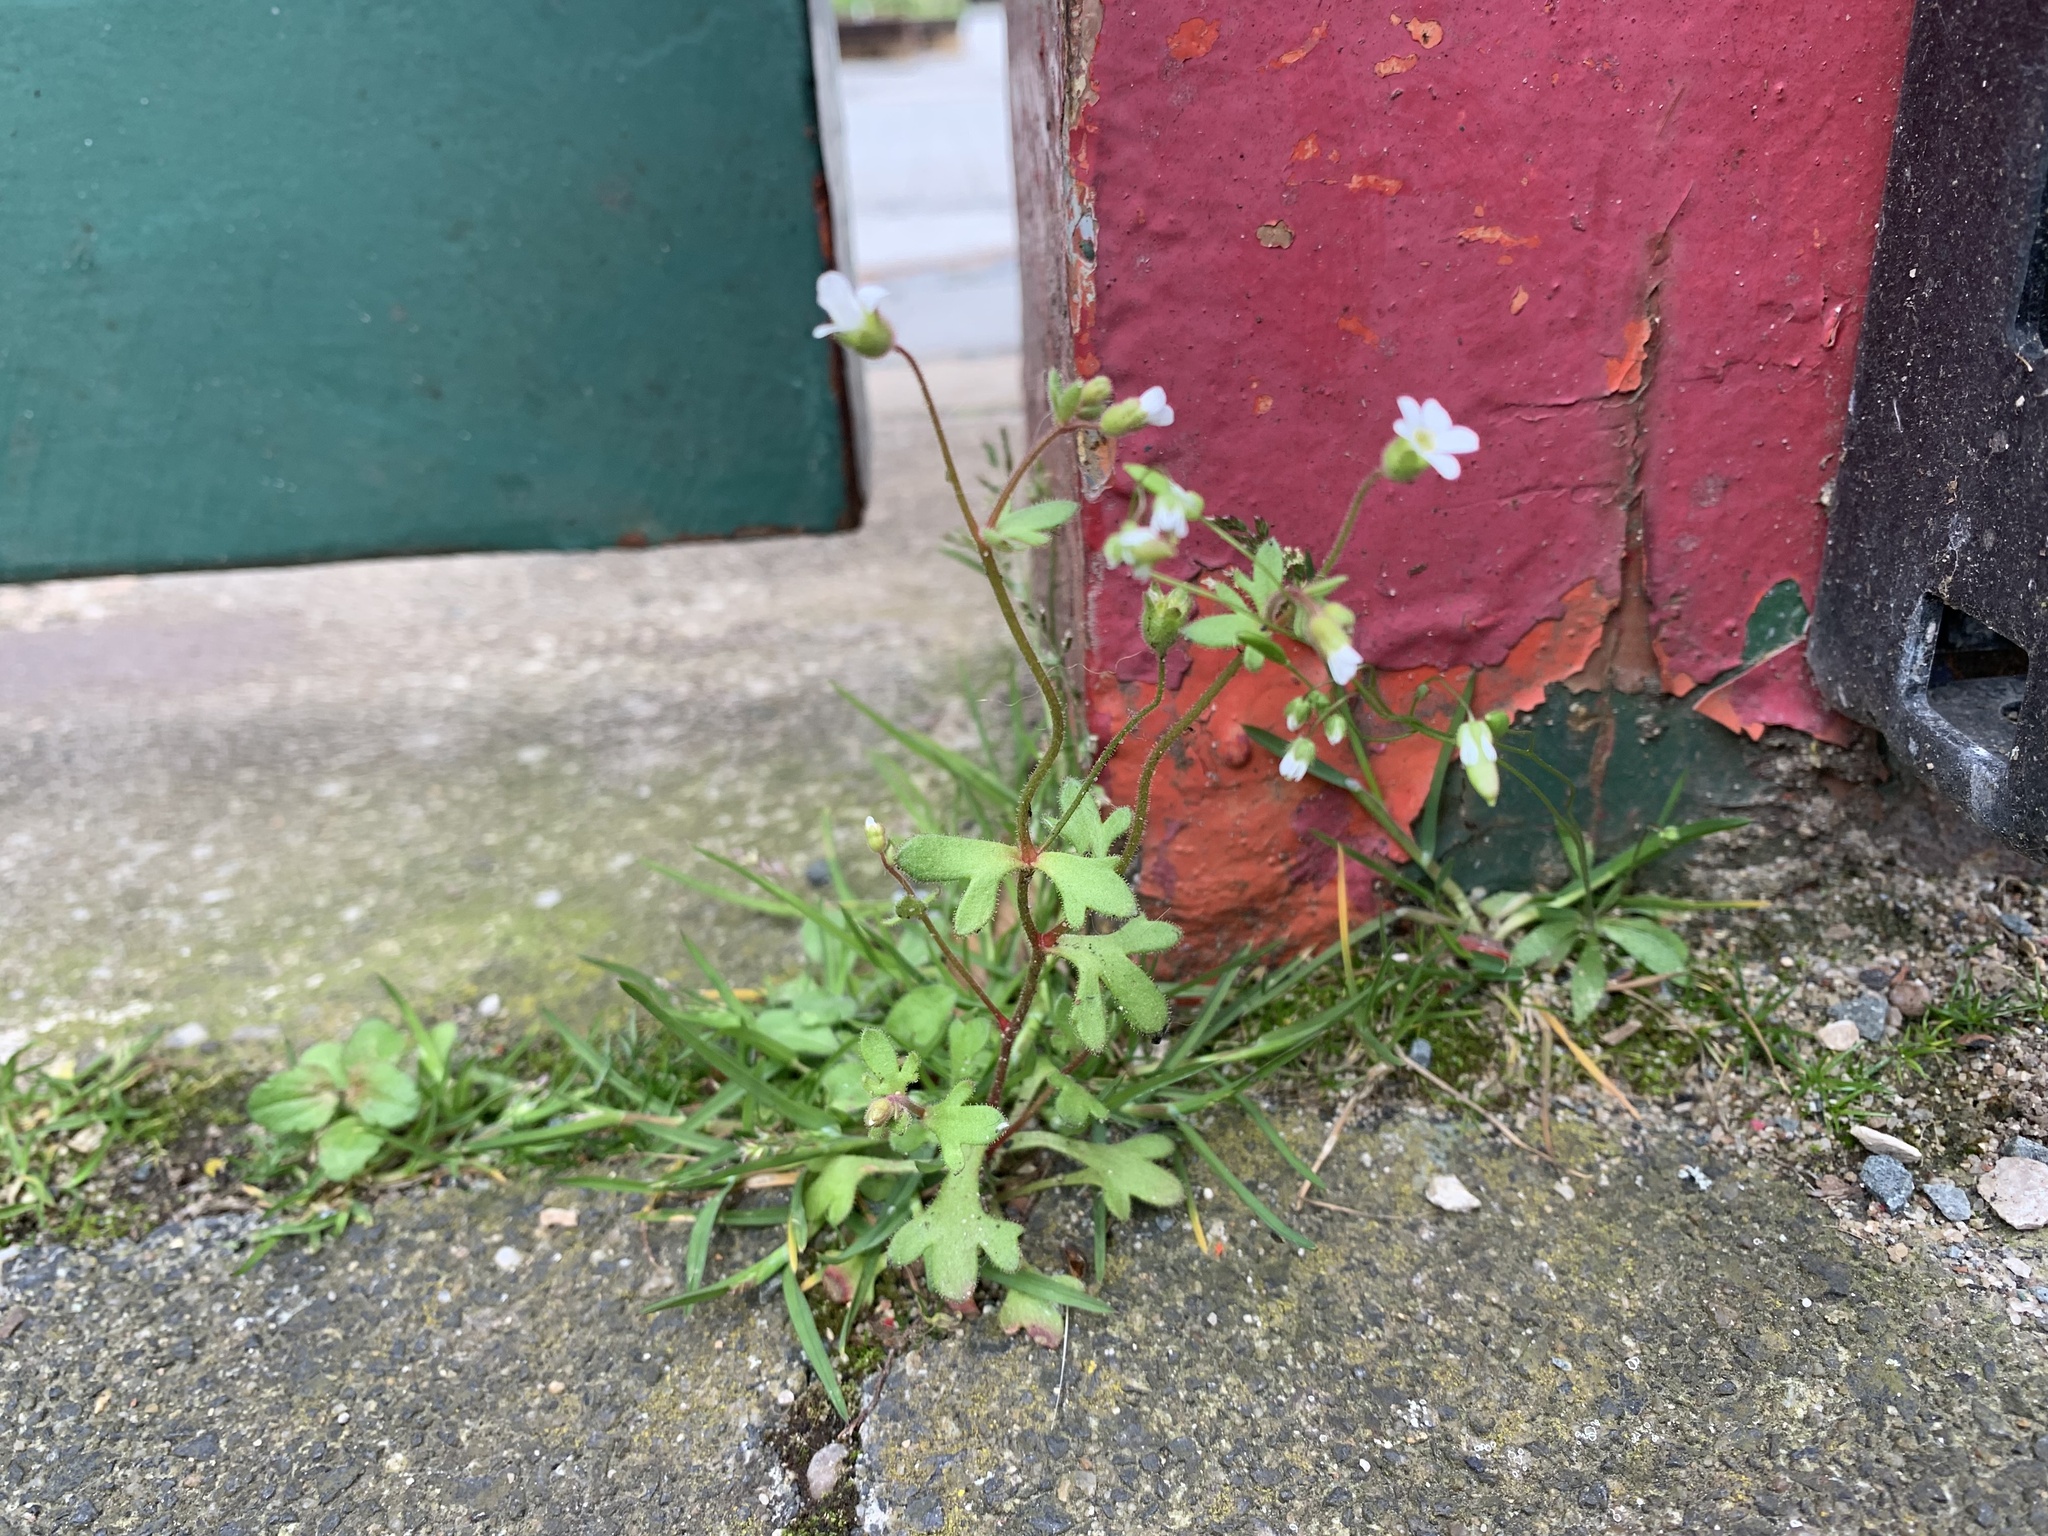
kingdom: Plantae
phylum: Tracheophyta
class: Magnoliopsida
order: Saxifragales
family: Saxifragaceae
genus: Saxifraga
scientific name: Saxifraga tridactylites
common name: Rue-leaved saxifrage
